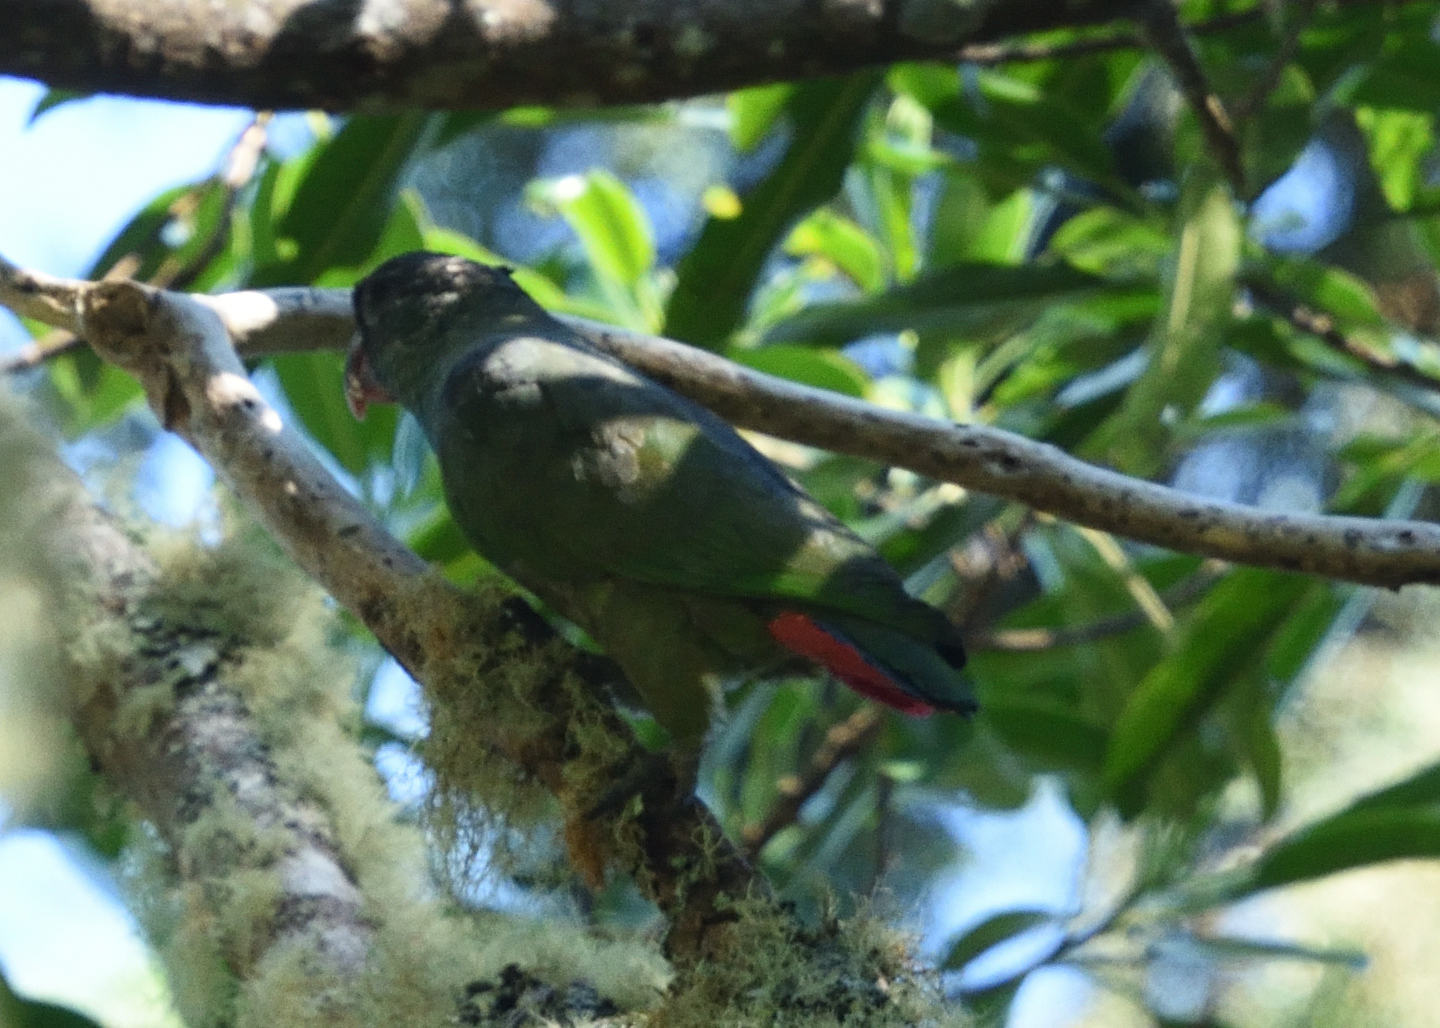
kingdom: Animalia
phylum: Chordata
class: Aves
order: Psittaciformes
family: Psittacidae
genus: Pionus
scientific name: Pionus sordidus
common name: Red-billed parrot
